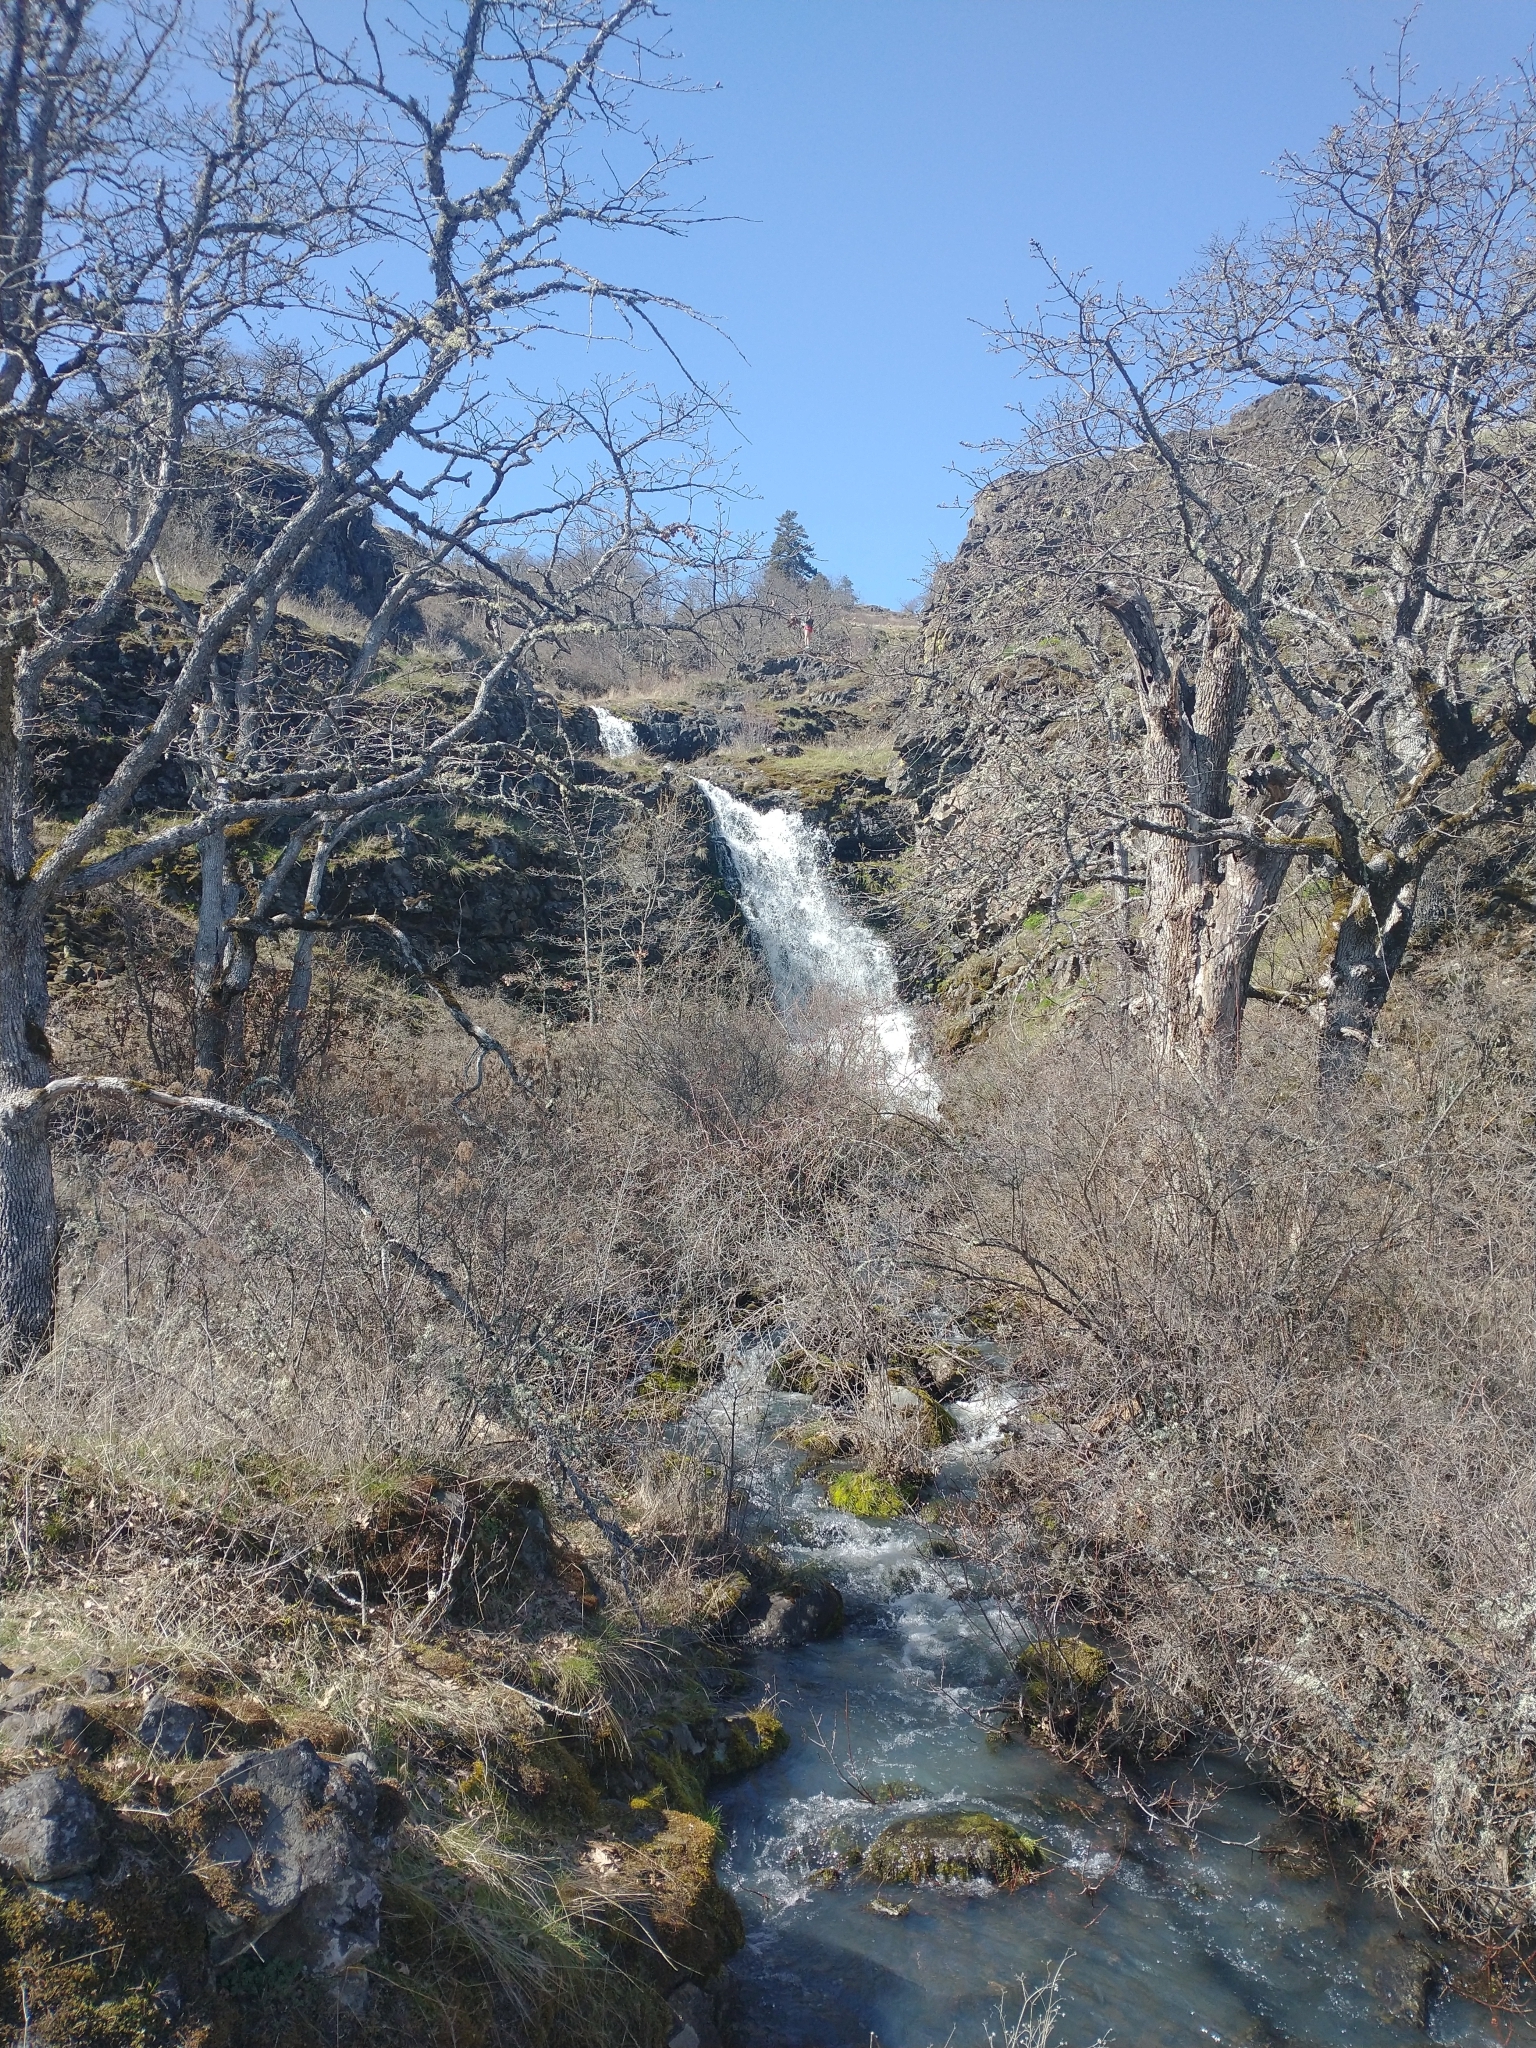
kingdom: Plantae
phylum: Tracheophyta
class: Magnoliopsida
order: Fagales
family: Fagaceae
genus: Quercus
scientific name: Quercus garryana
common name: Garry oak
